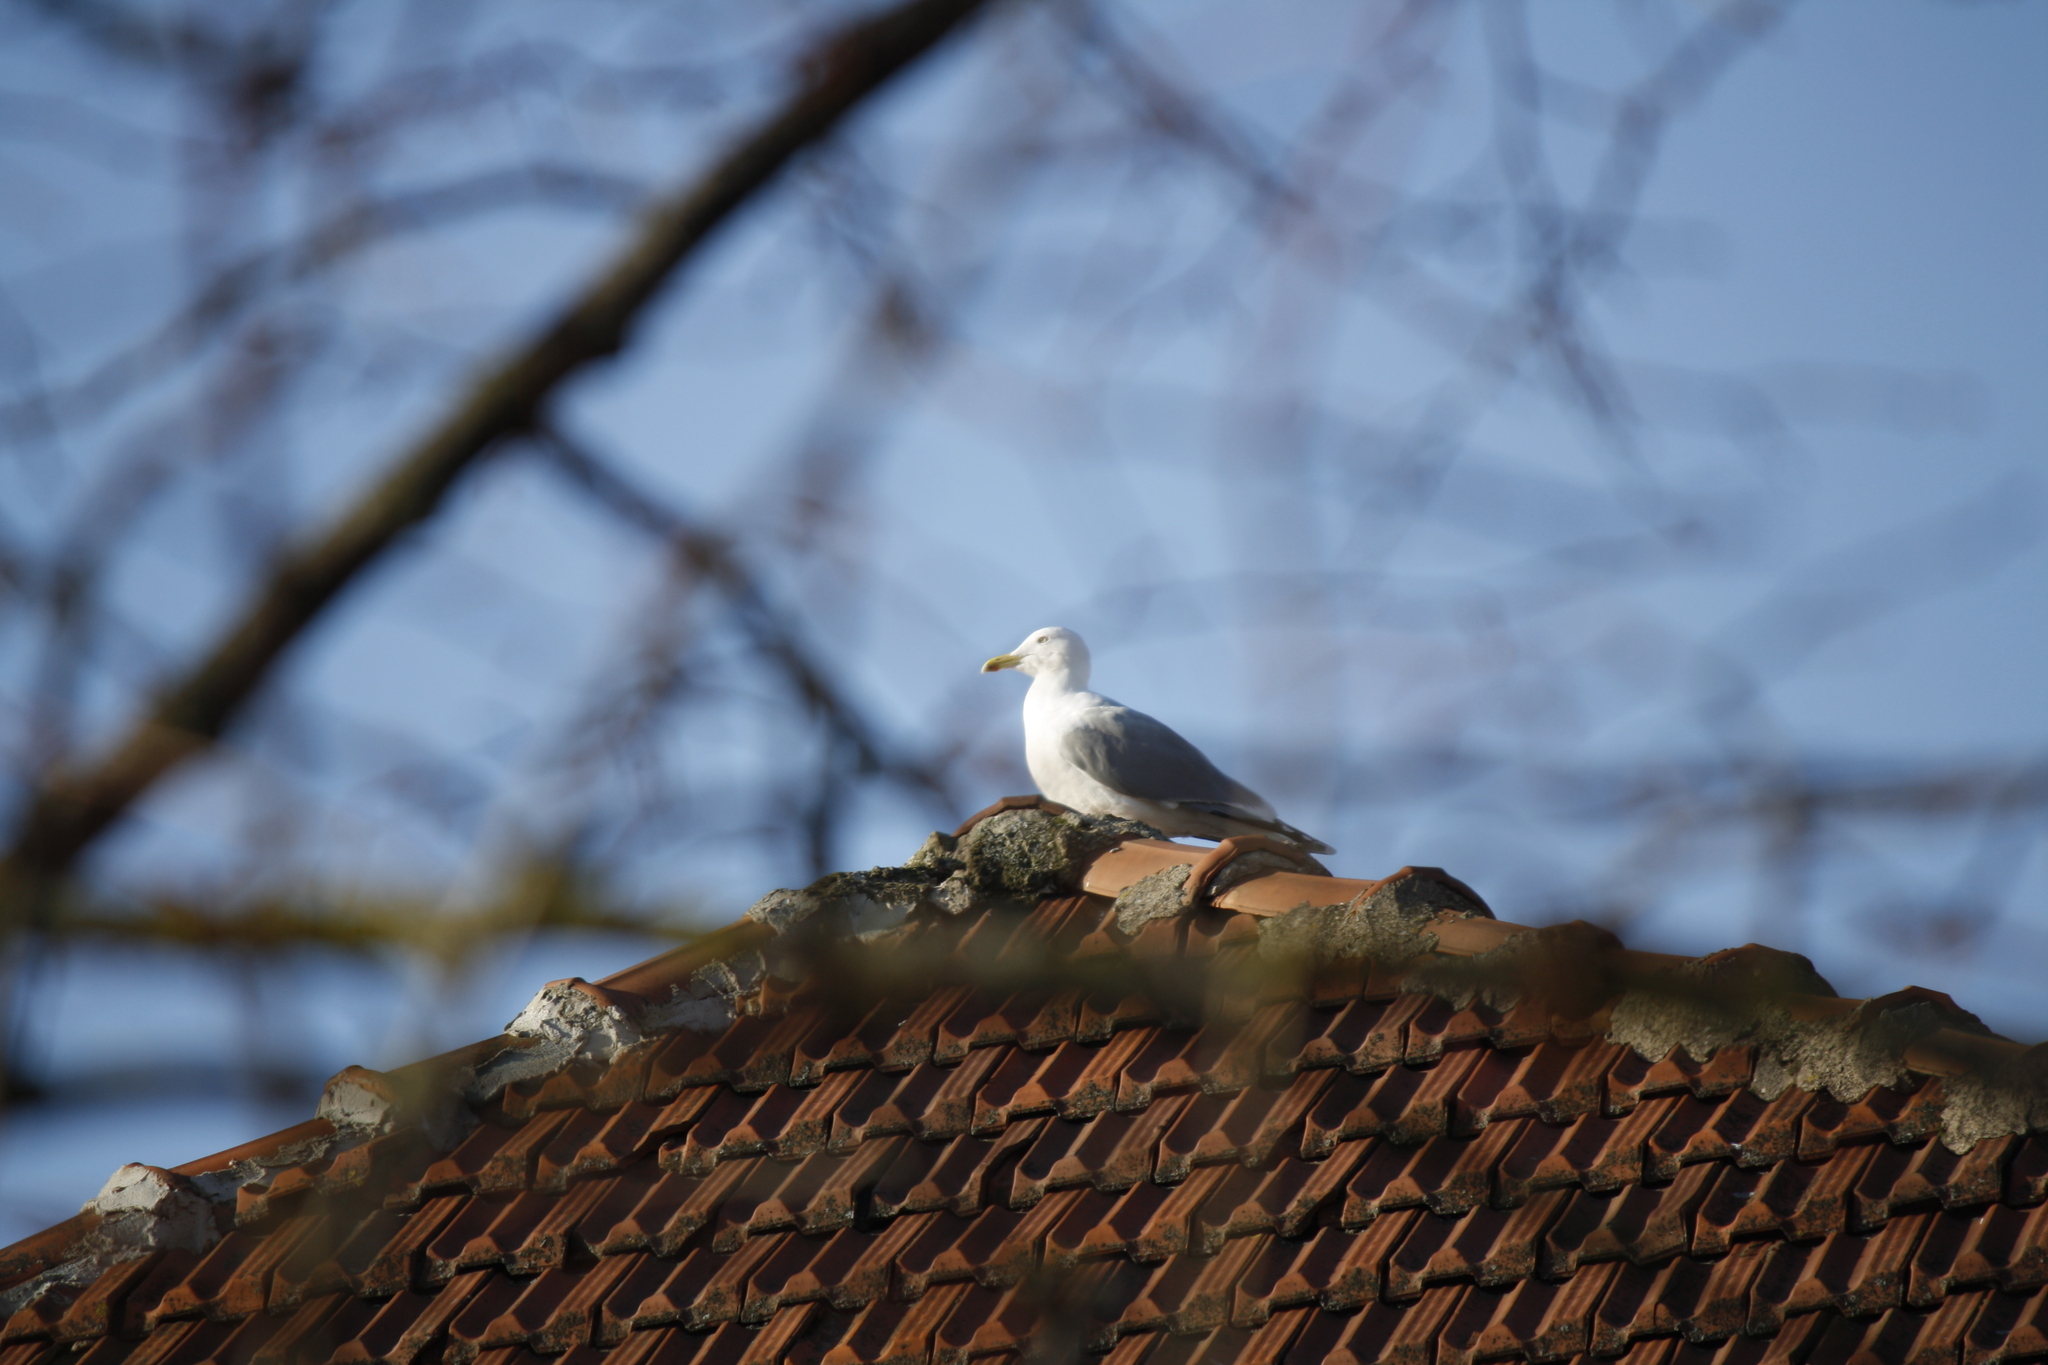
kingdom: Animalia
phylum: Chordata
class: Aves
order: Charadriiformes
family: Laridae
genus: Larus
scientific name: Larus argentatus
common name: Herring gull
